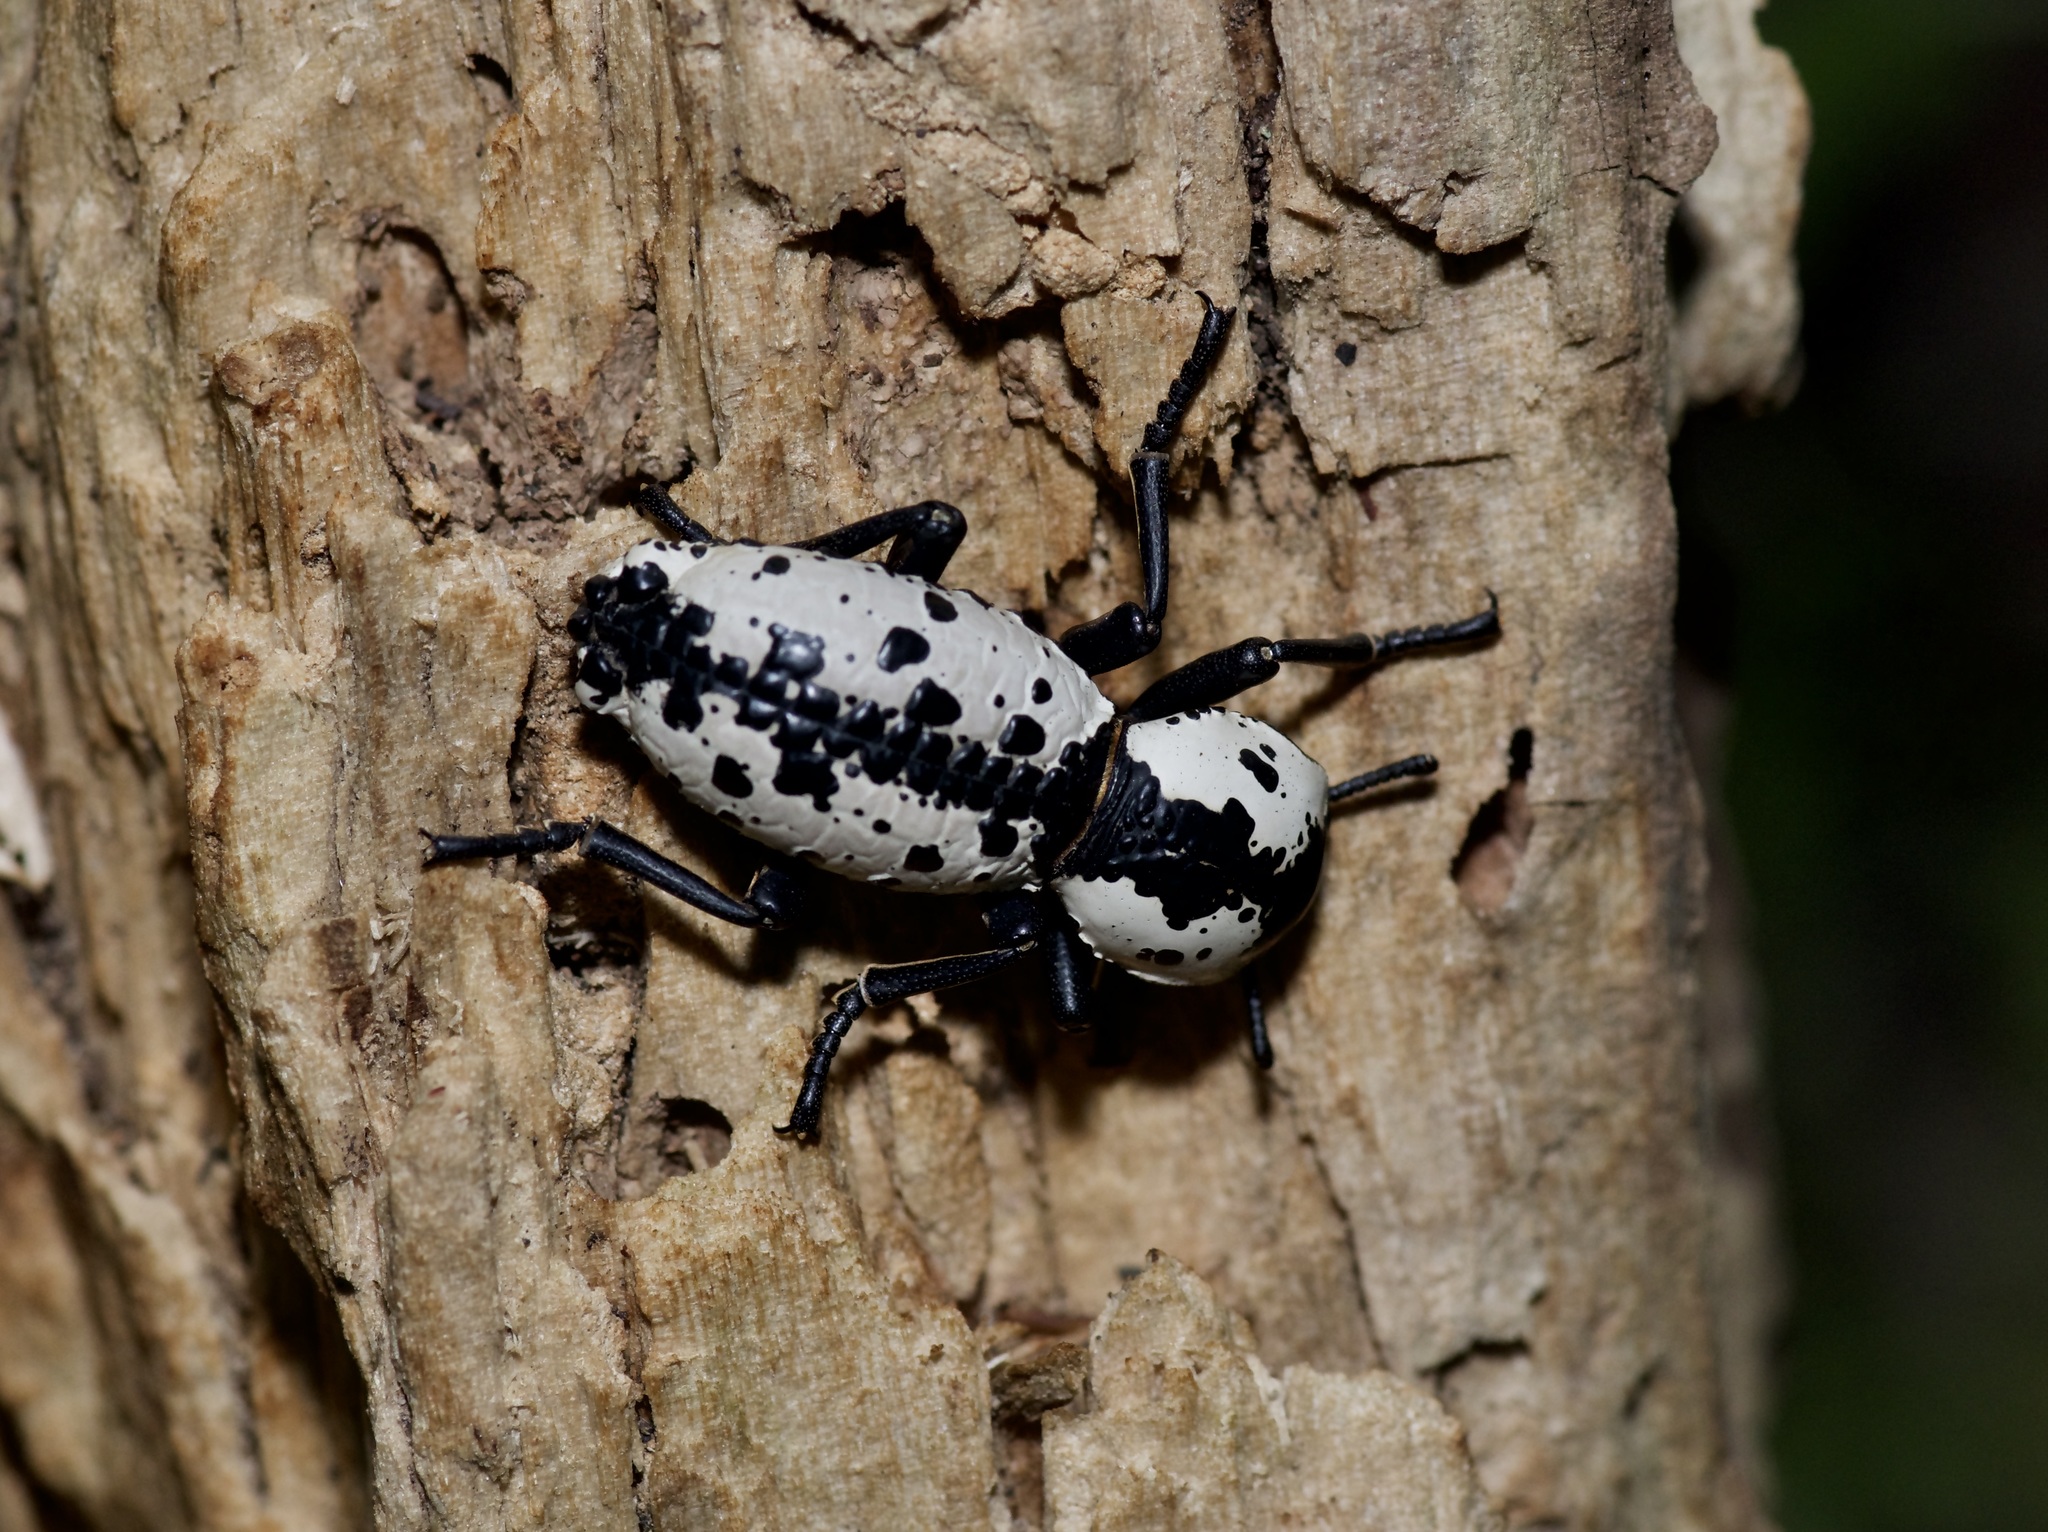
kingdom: Animalia
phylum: Arthropoda
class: Insecta
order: Coleoptera
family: Zopheridae
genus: Zopherus
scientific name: Zopherus nodulosus
